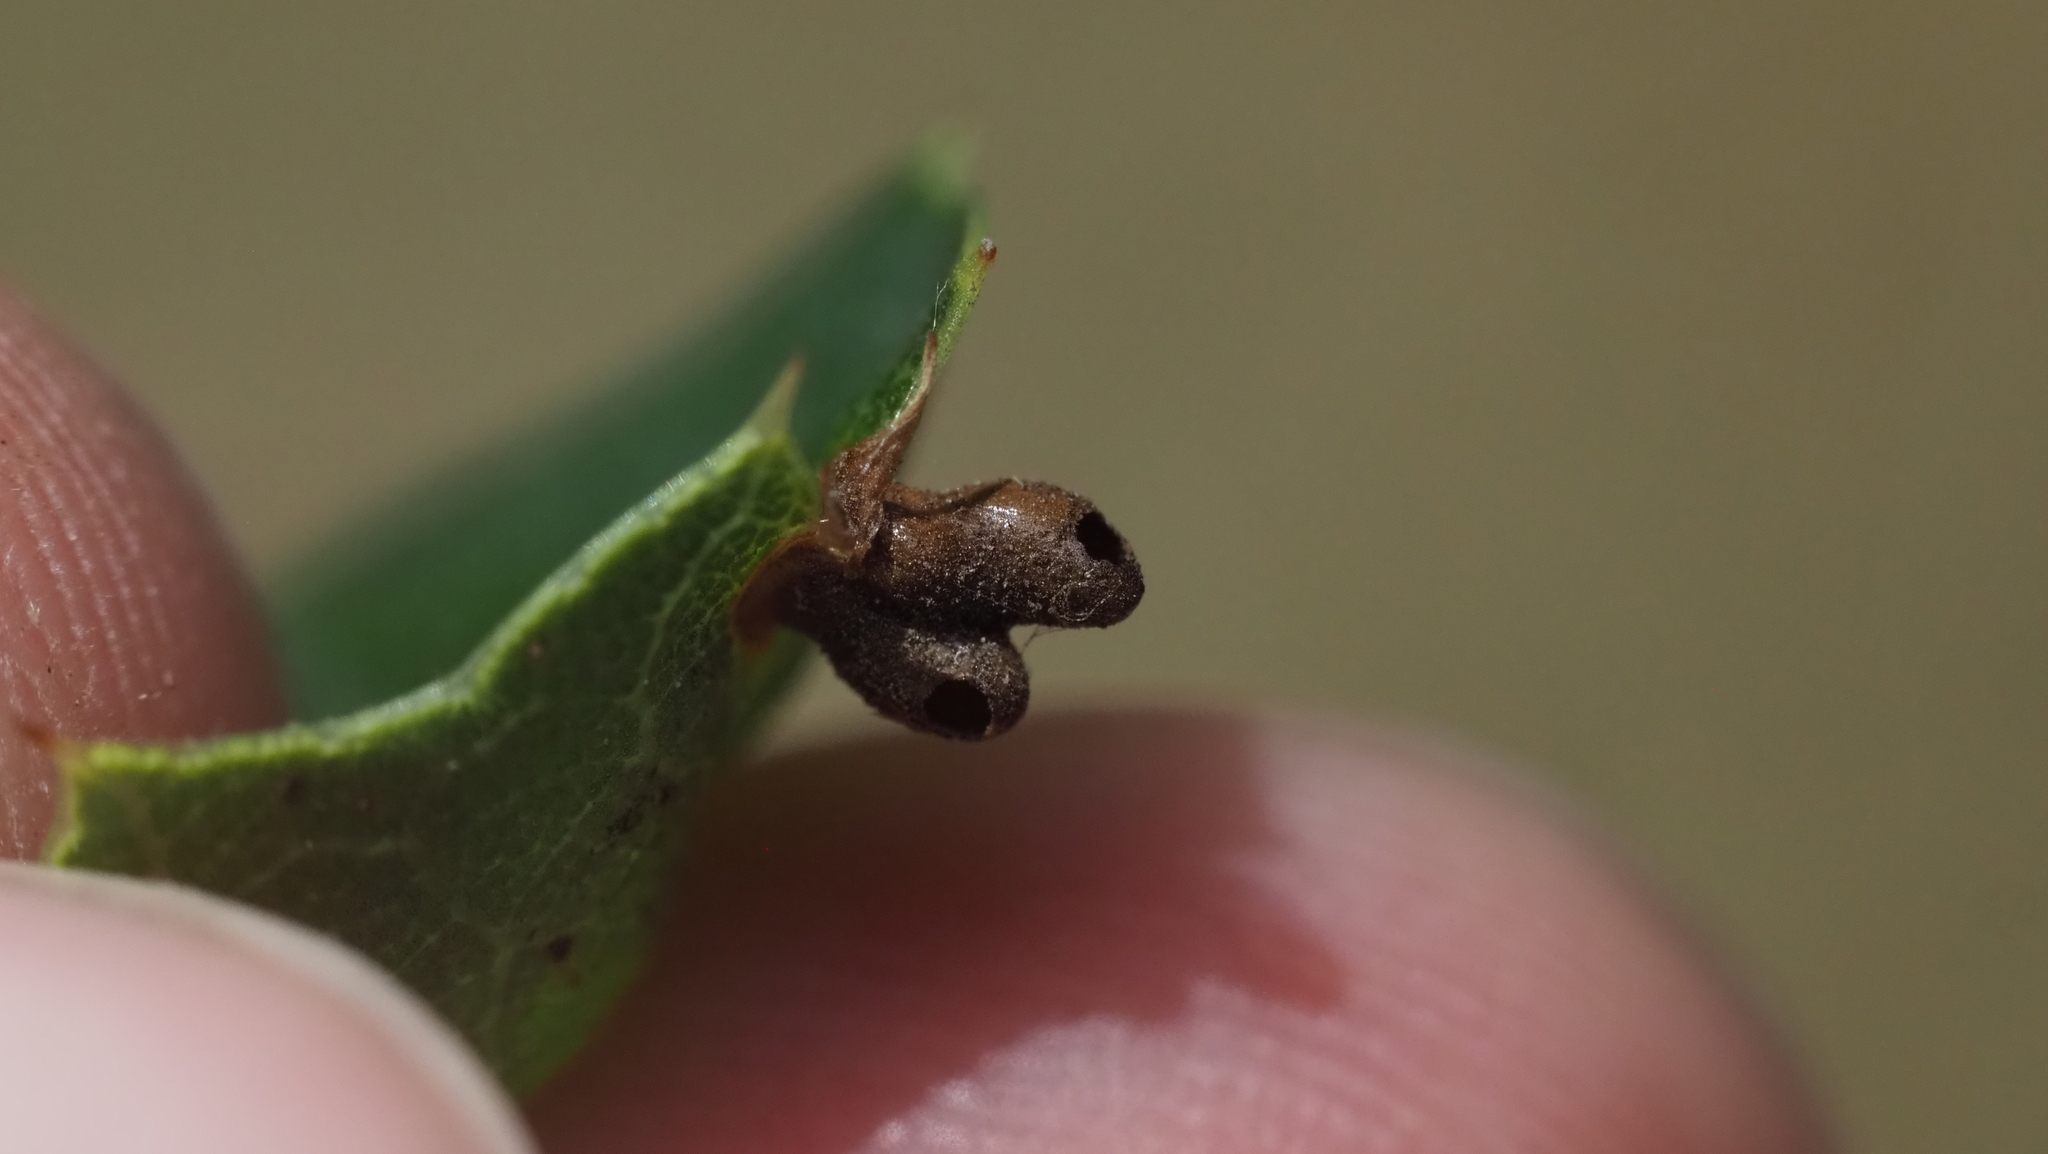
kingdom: Animalia
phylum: Arthropoda
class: Insecta
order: Hymenoptera
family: Cynipidae
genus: Dryocosmus
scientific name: Dryocosmus
